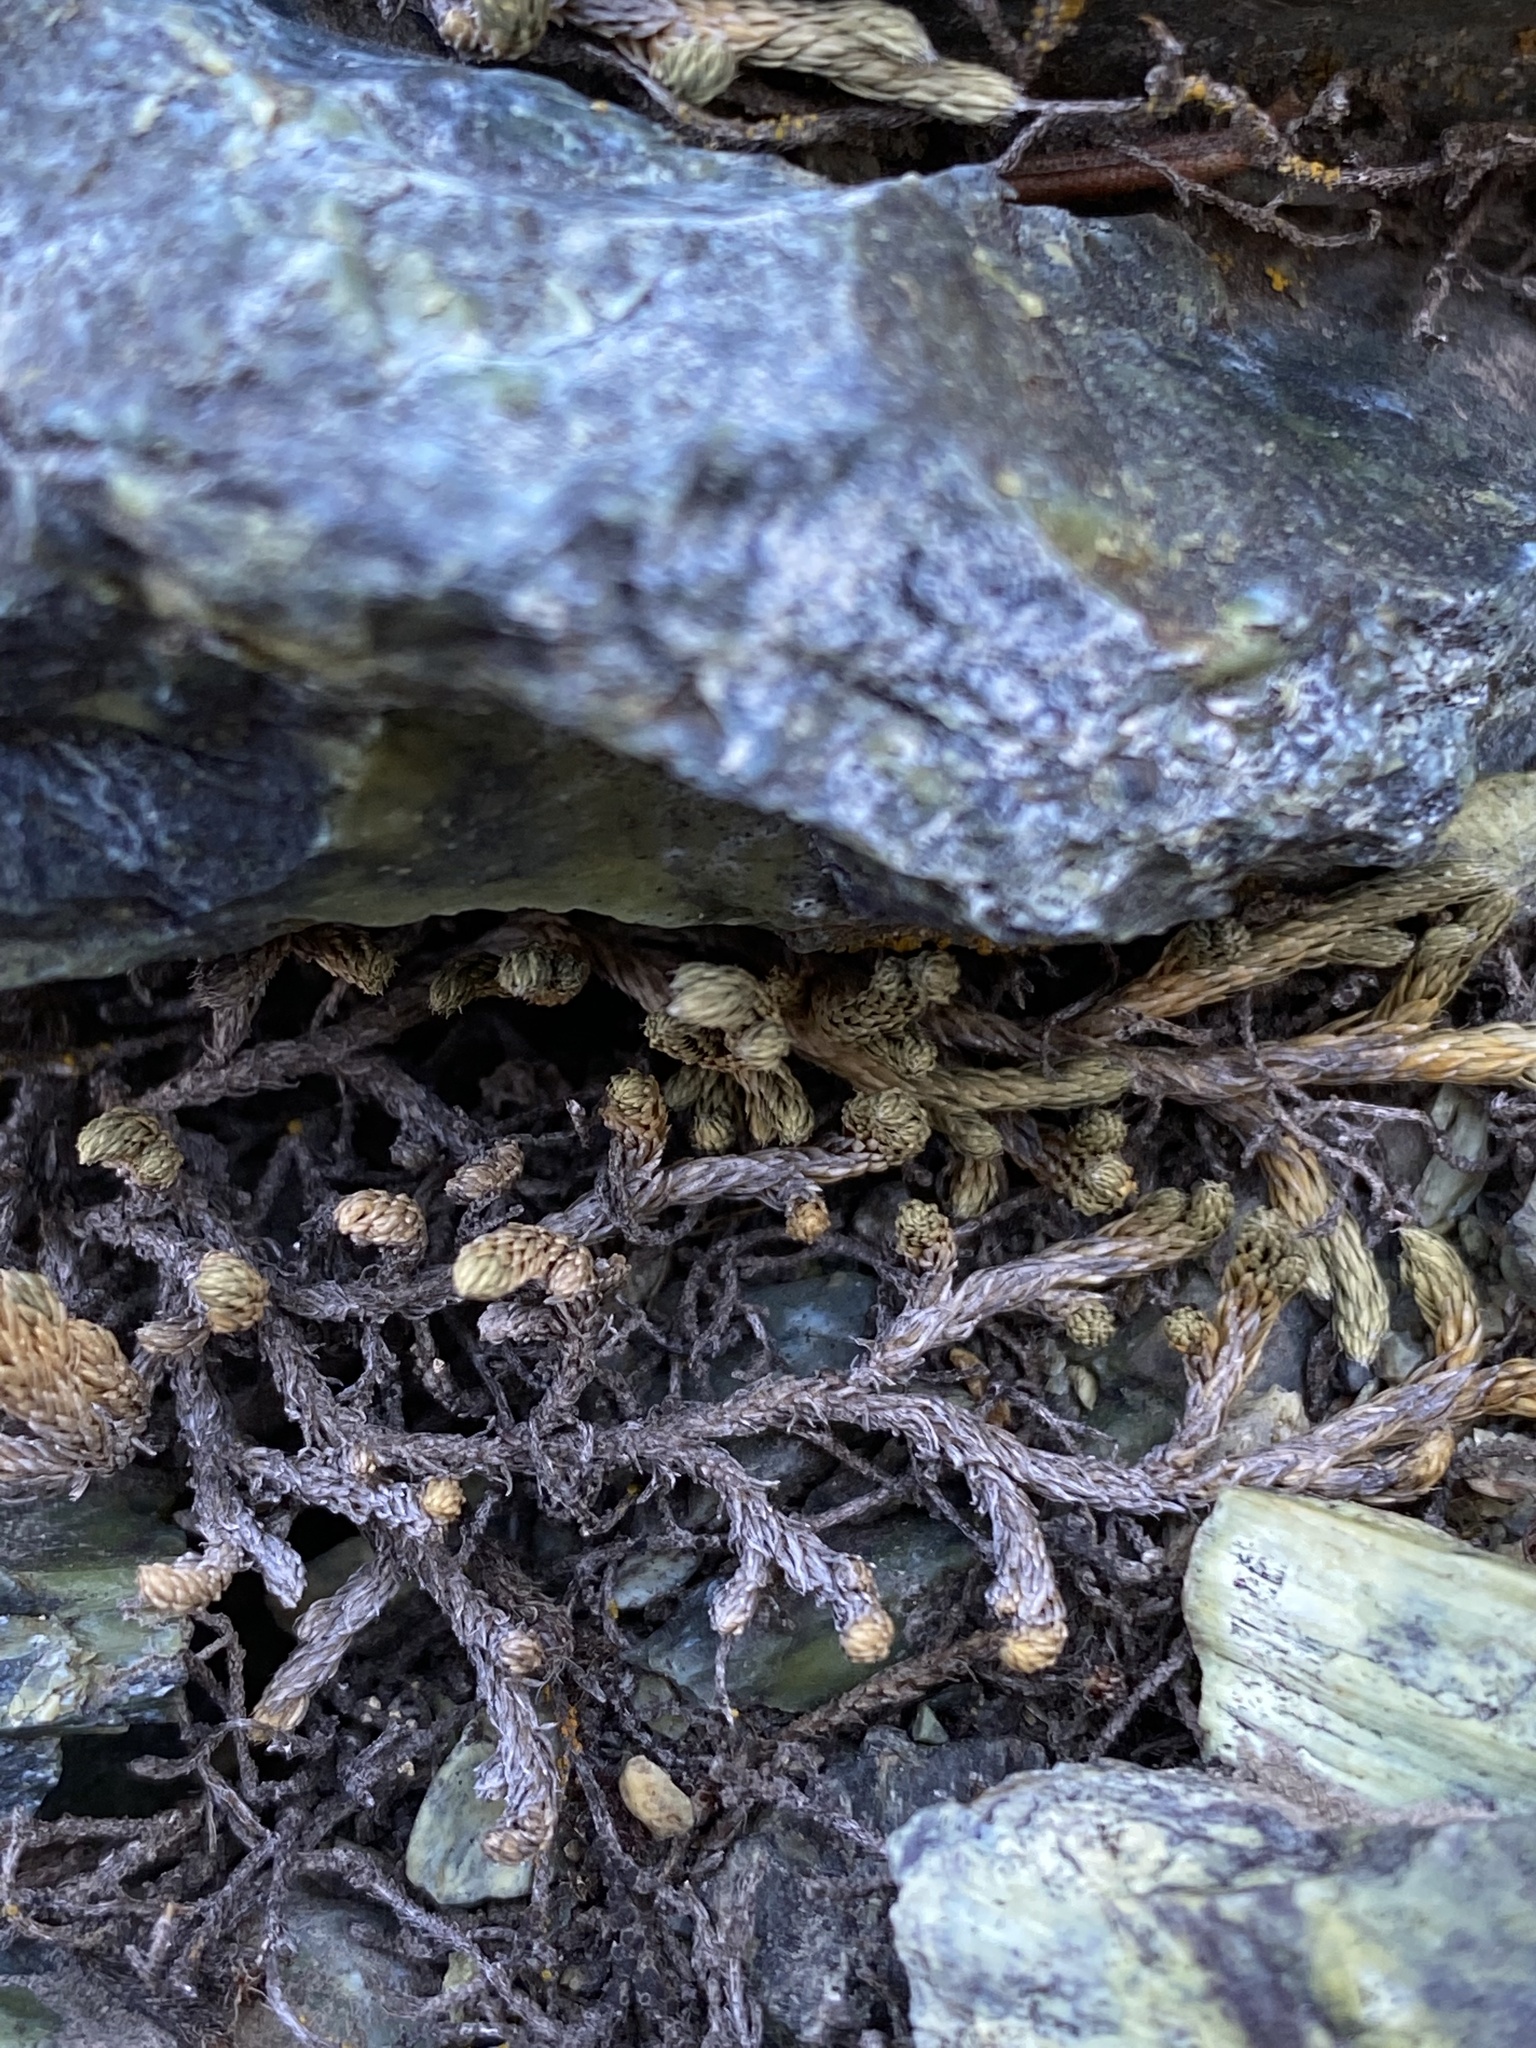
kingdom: Plantae
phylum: Tracheophyta
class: Lycopodiopsida
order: Selaginellales
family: Selaginellaceae
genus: Selaginella
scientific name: Selaginella wallacei
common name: Wallace's selaginella
